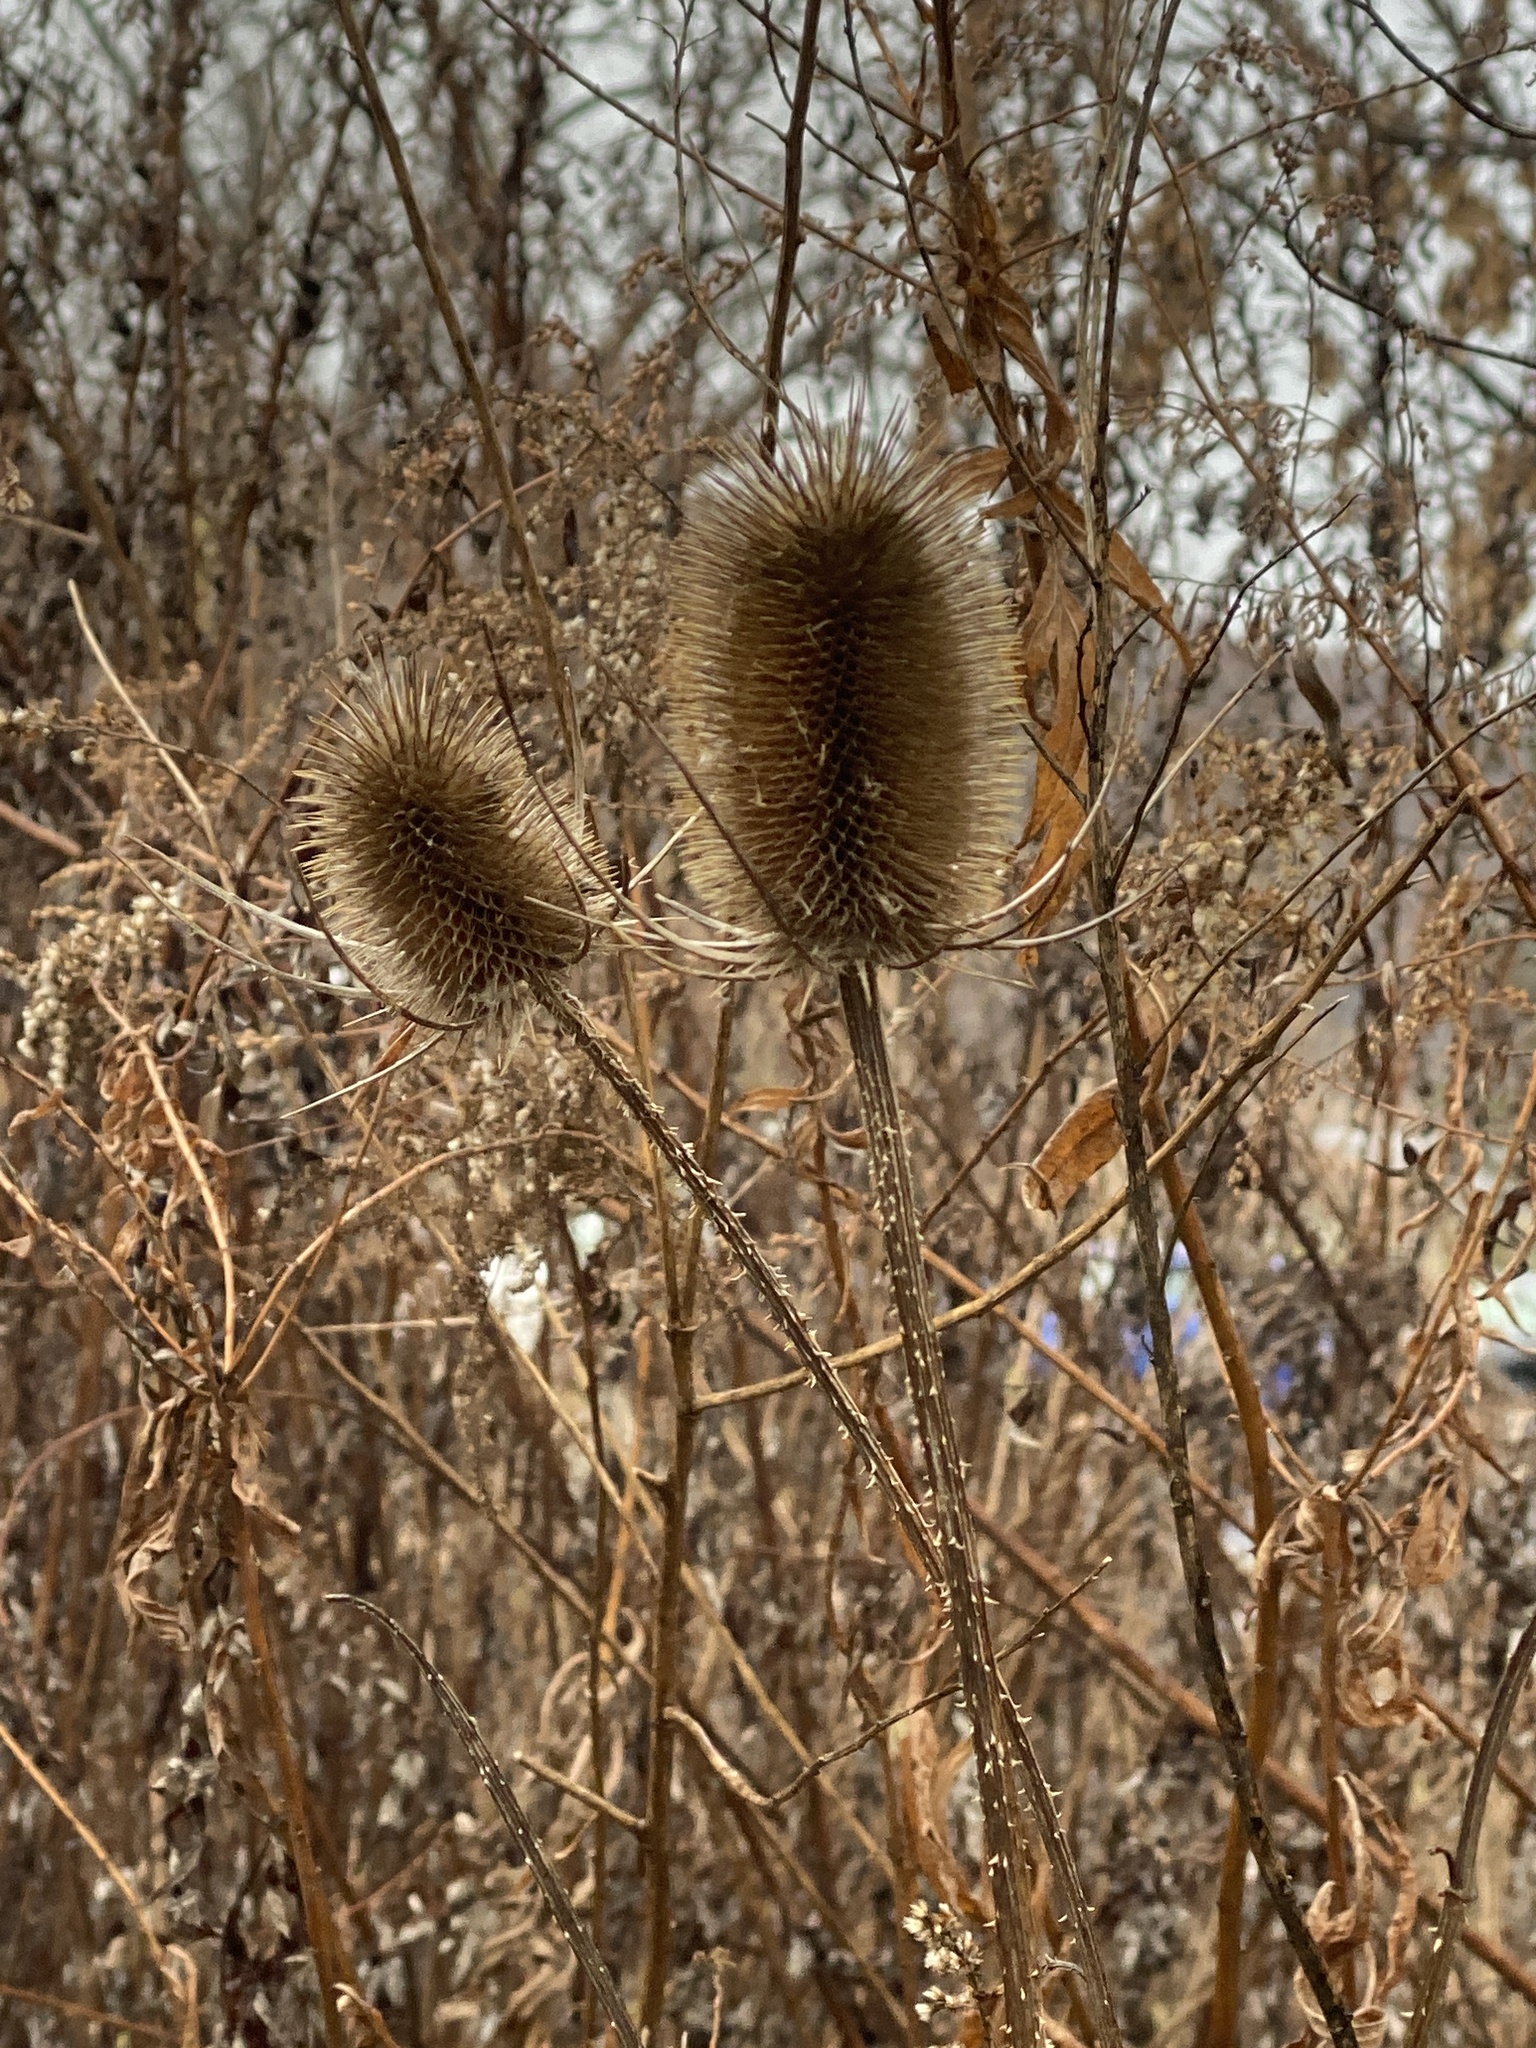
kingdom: Plantae
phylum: Tracheophyta
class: Magnoliopsida
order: Dipsacales
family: Caprifoliaceae
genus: Dipsacus
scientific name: Dipsacus fullonum
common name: Teasel
